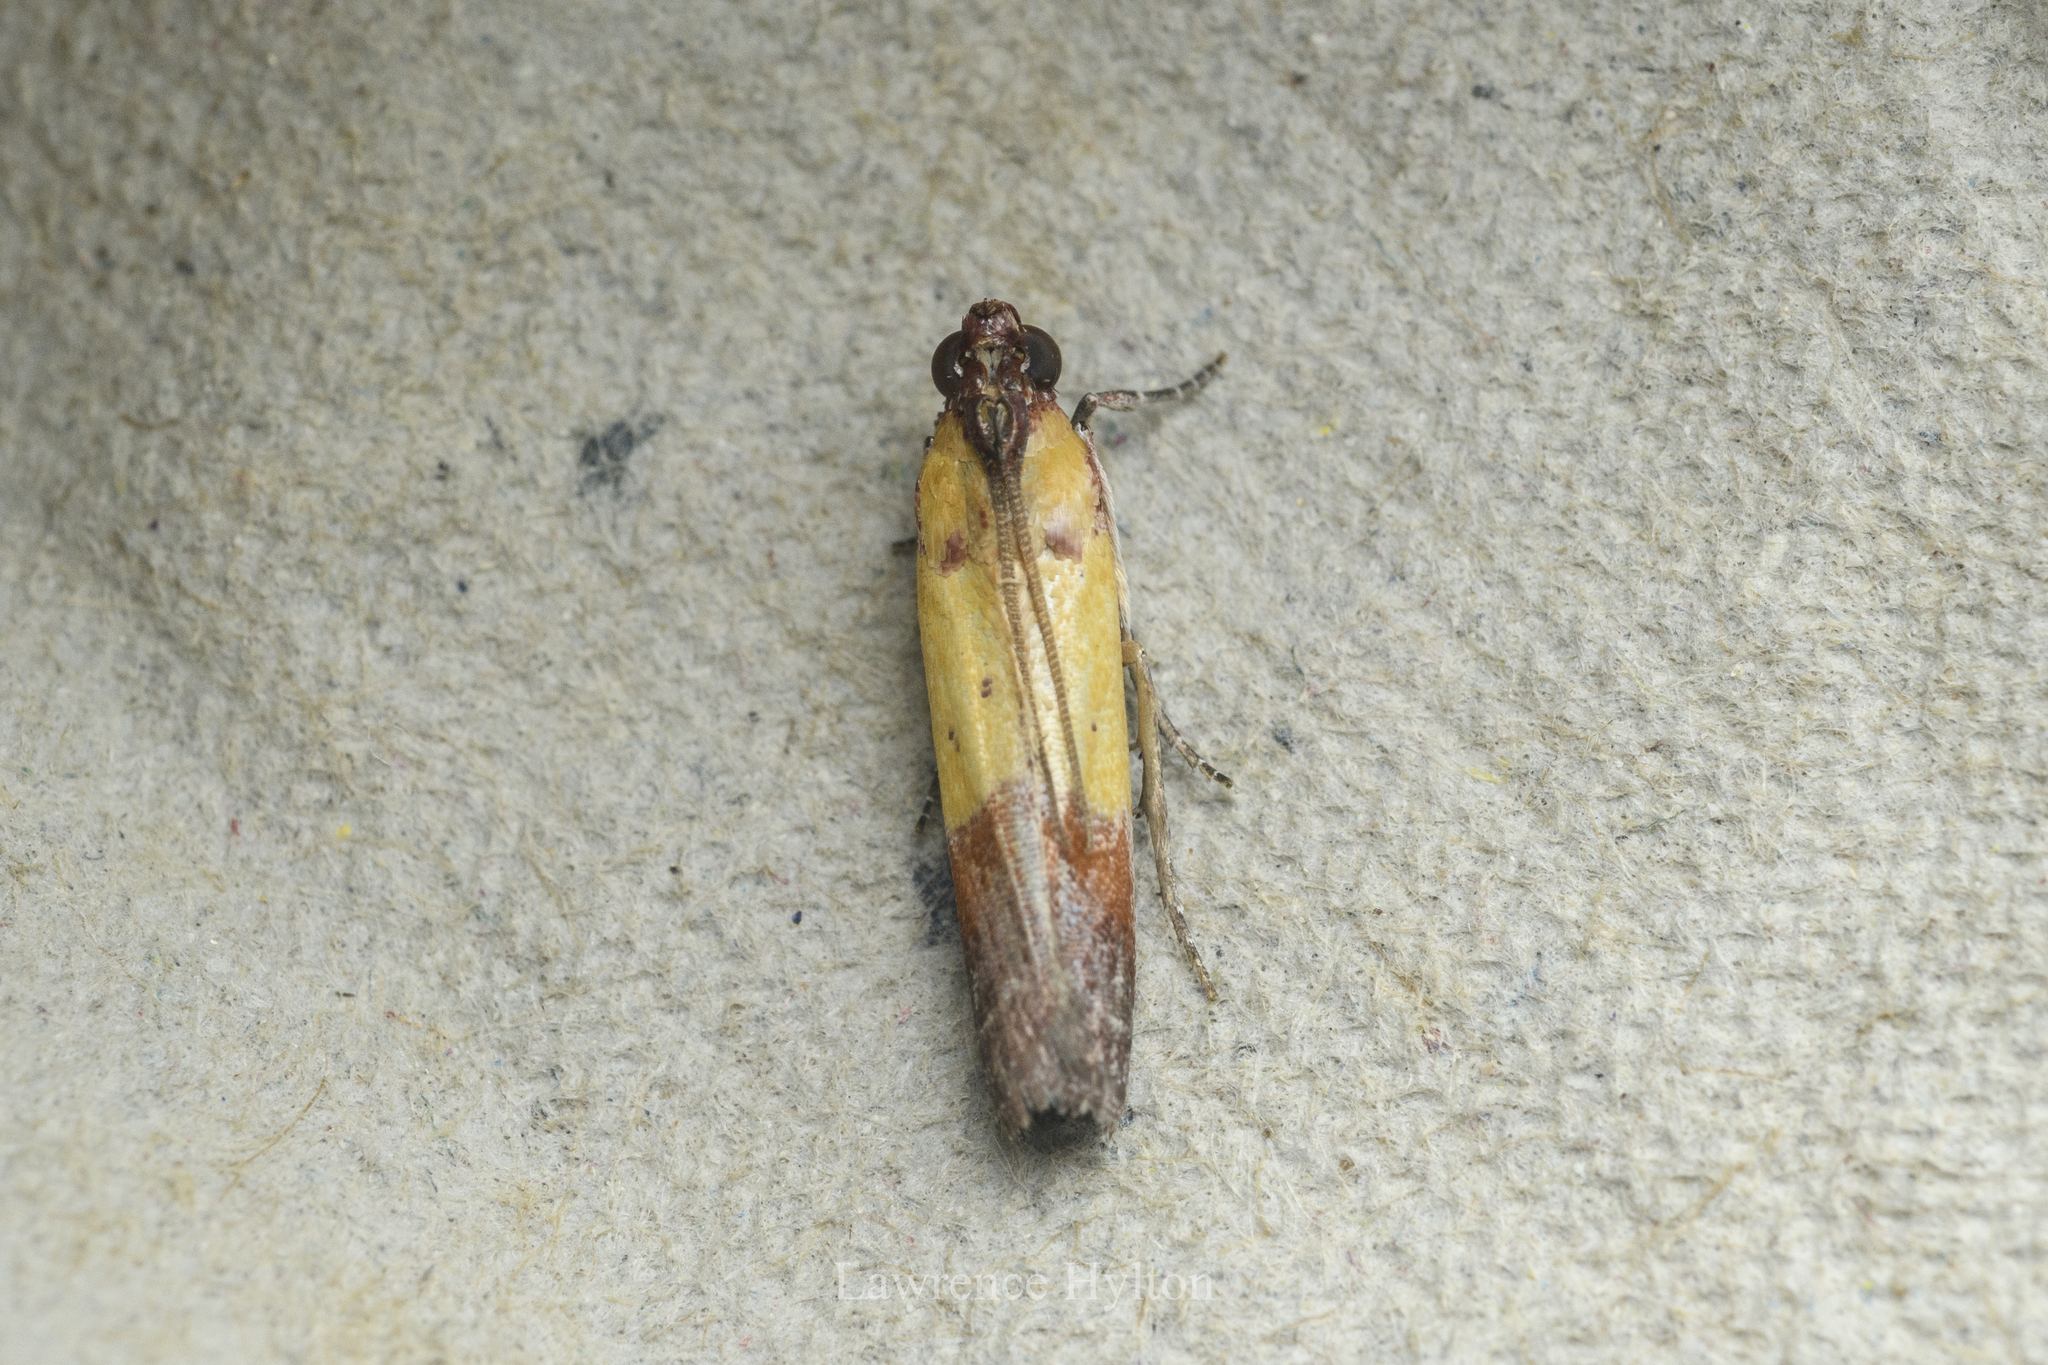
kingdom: Animalia
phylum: Arthropoda
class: Insecta
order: Lepidoptera
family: Pyralidae
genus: Piesmopoda
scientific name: Piesmopoda
